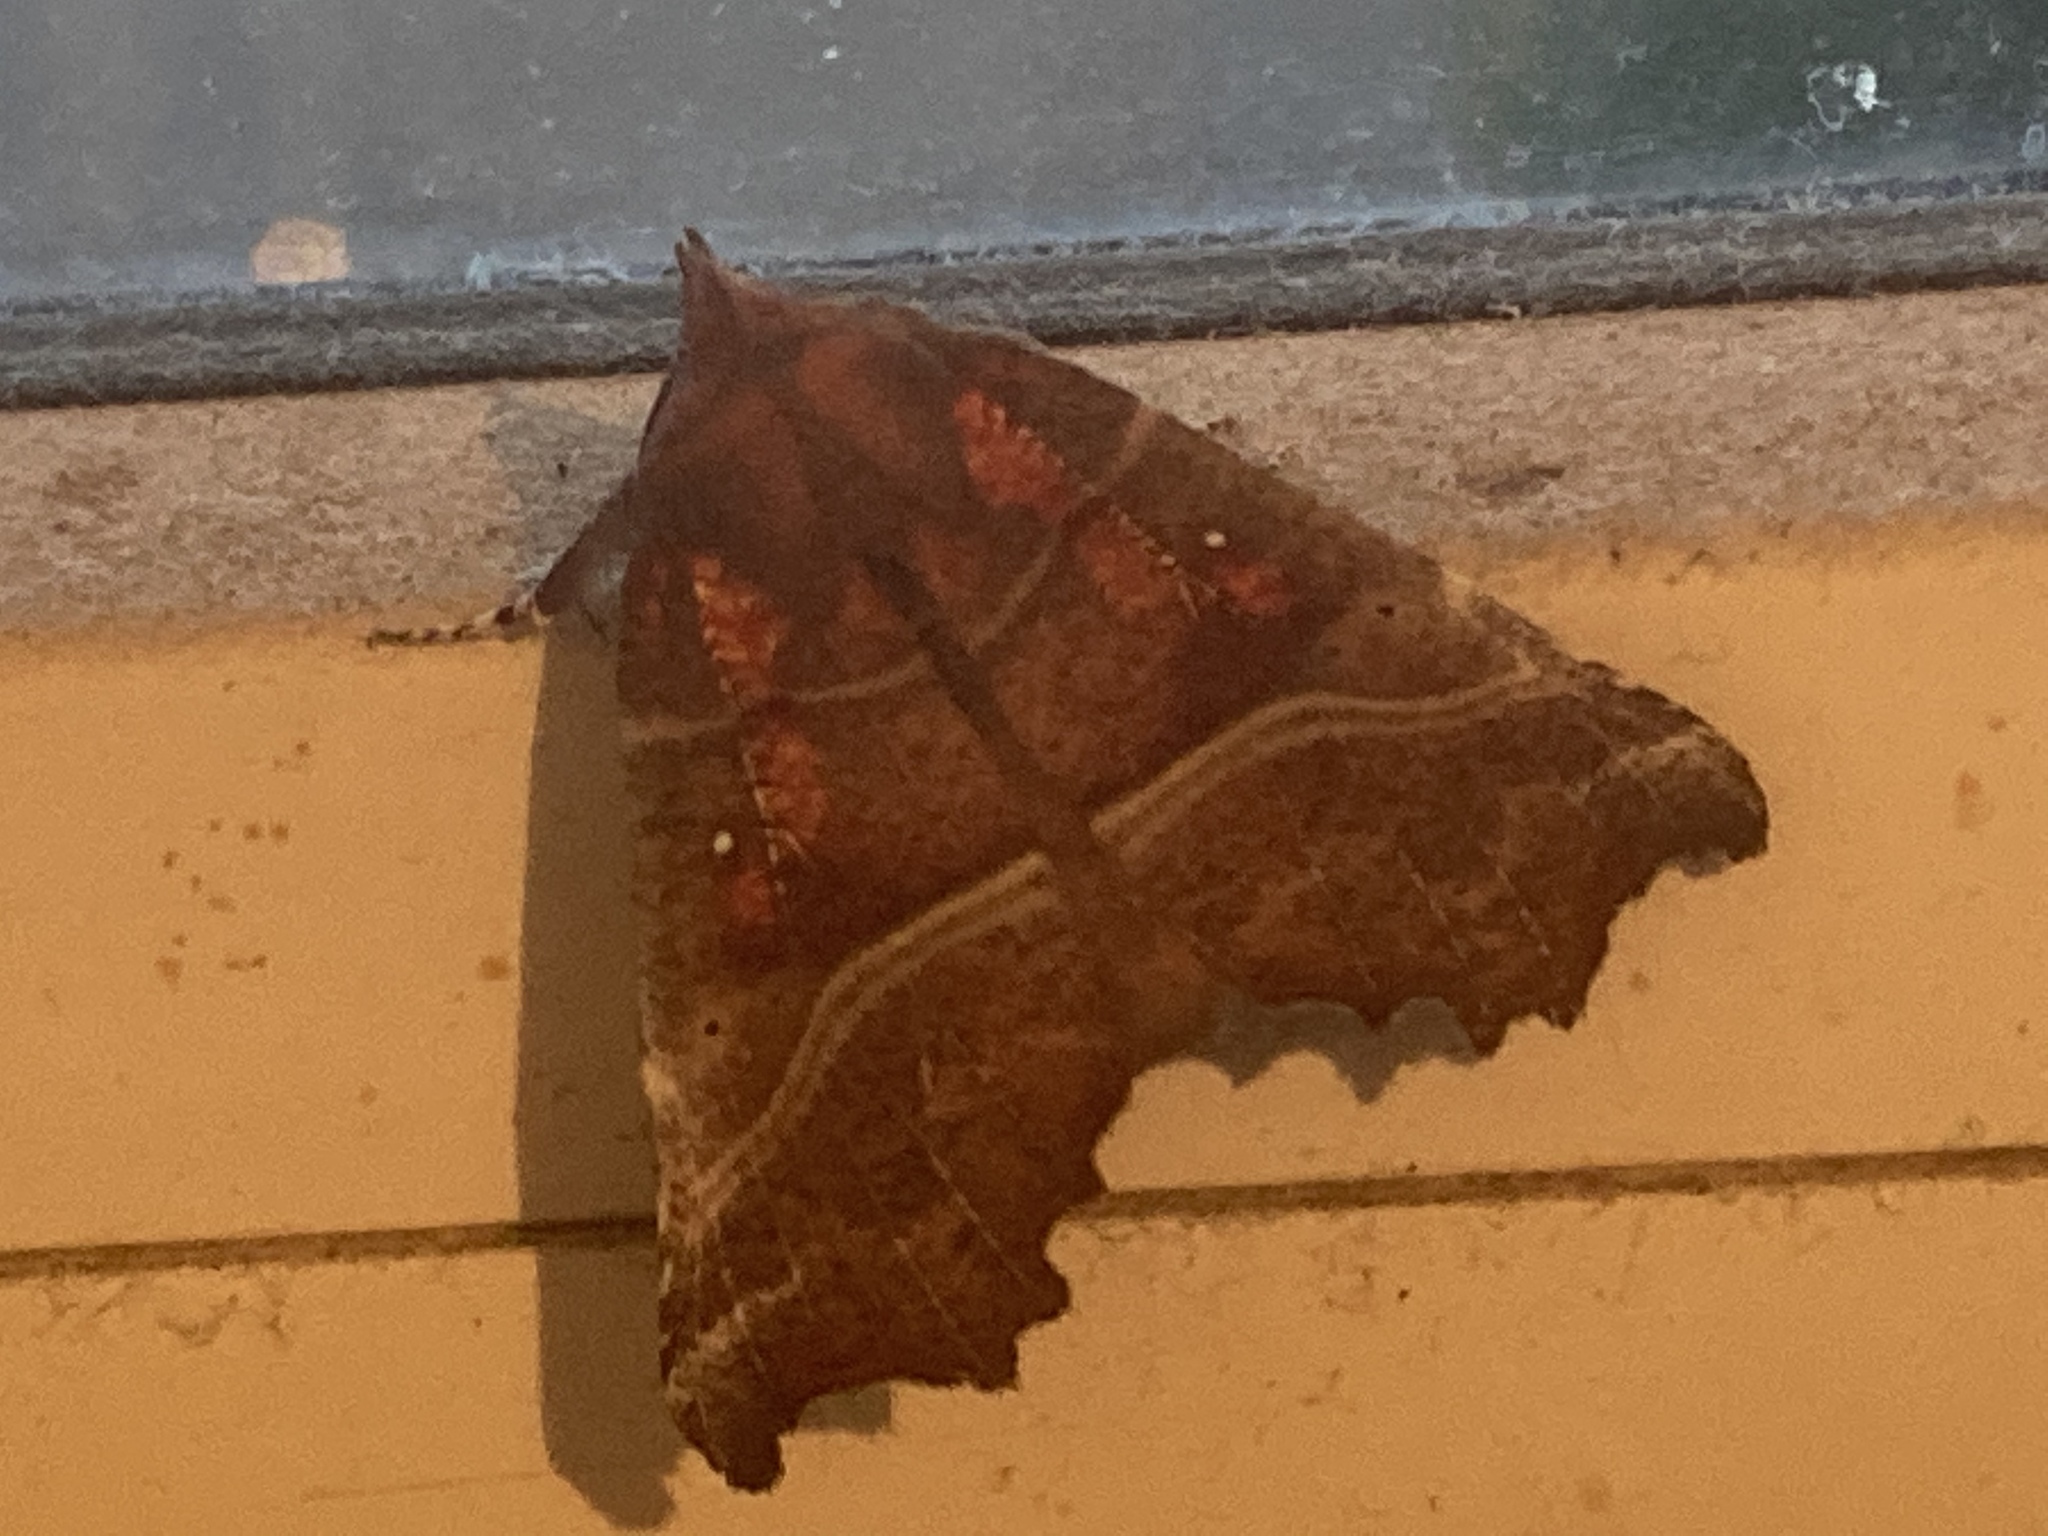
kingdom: Animalia
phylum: Arthropoda
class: Insecta
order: Lepidoptera
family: Erebidae
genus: Scoliopteryx
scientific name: Scoliopteryx libatrix
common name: Herald
